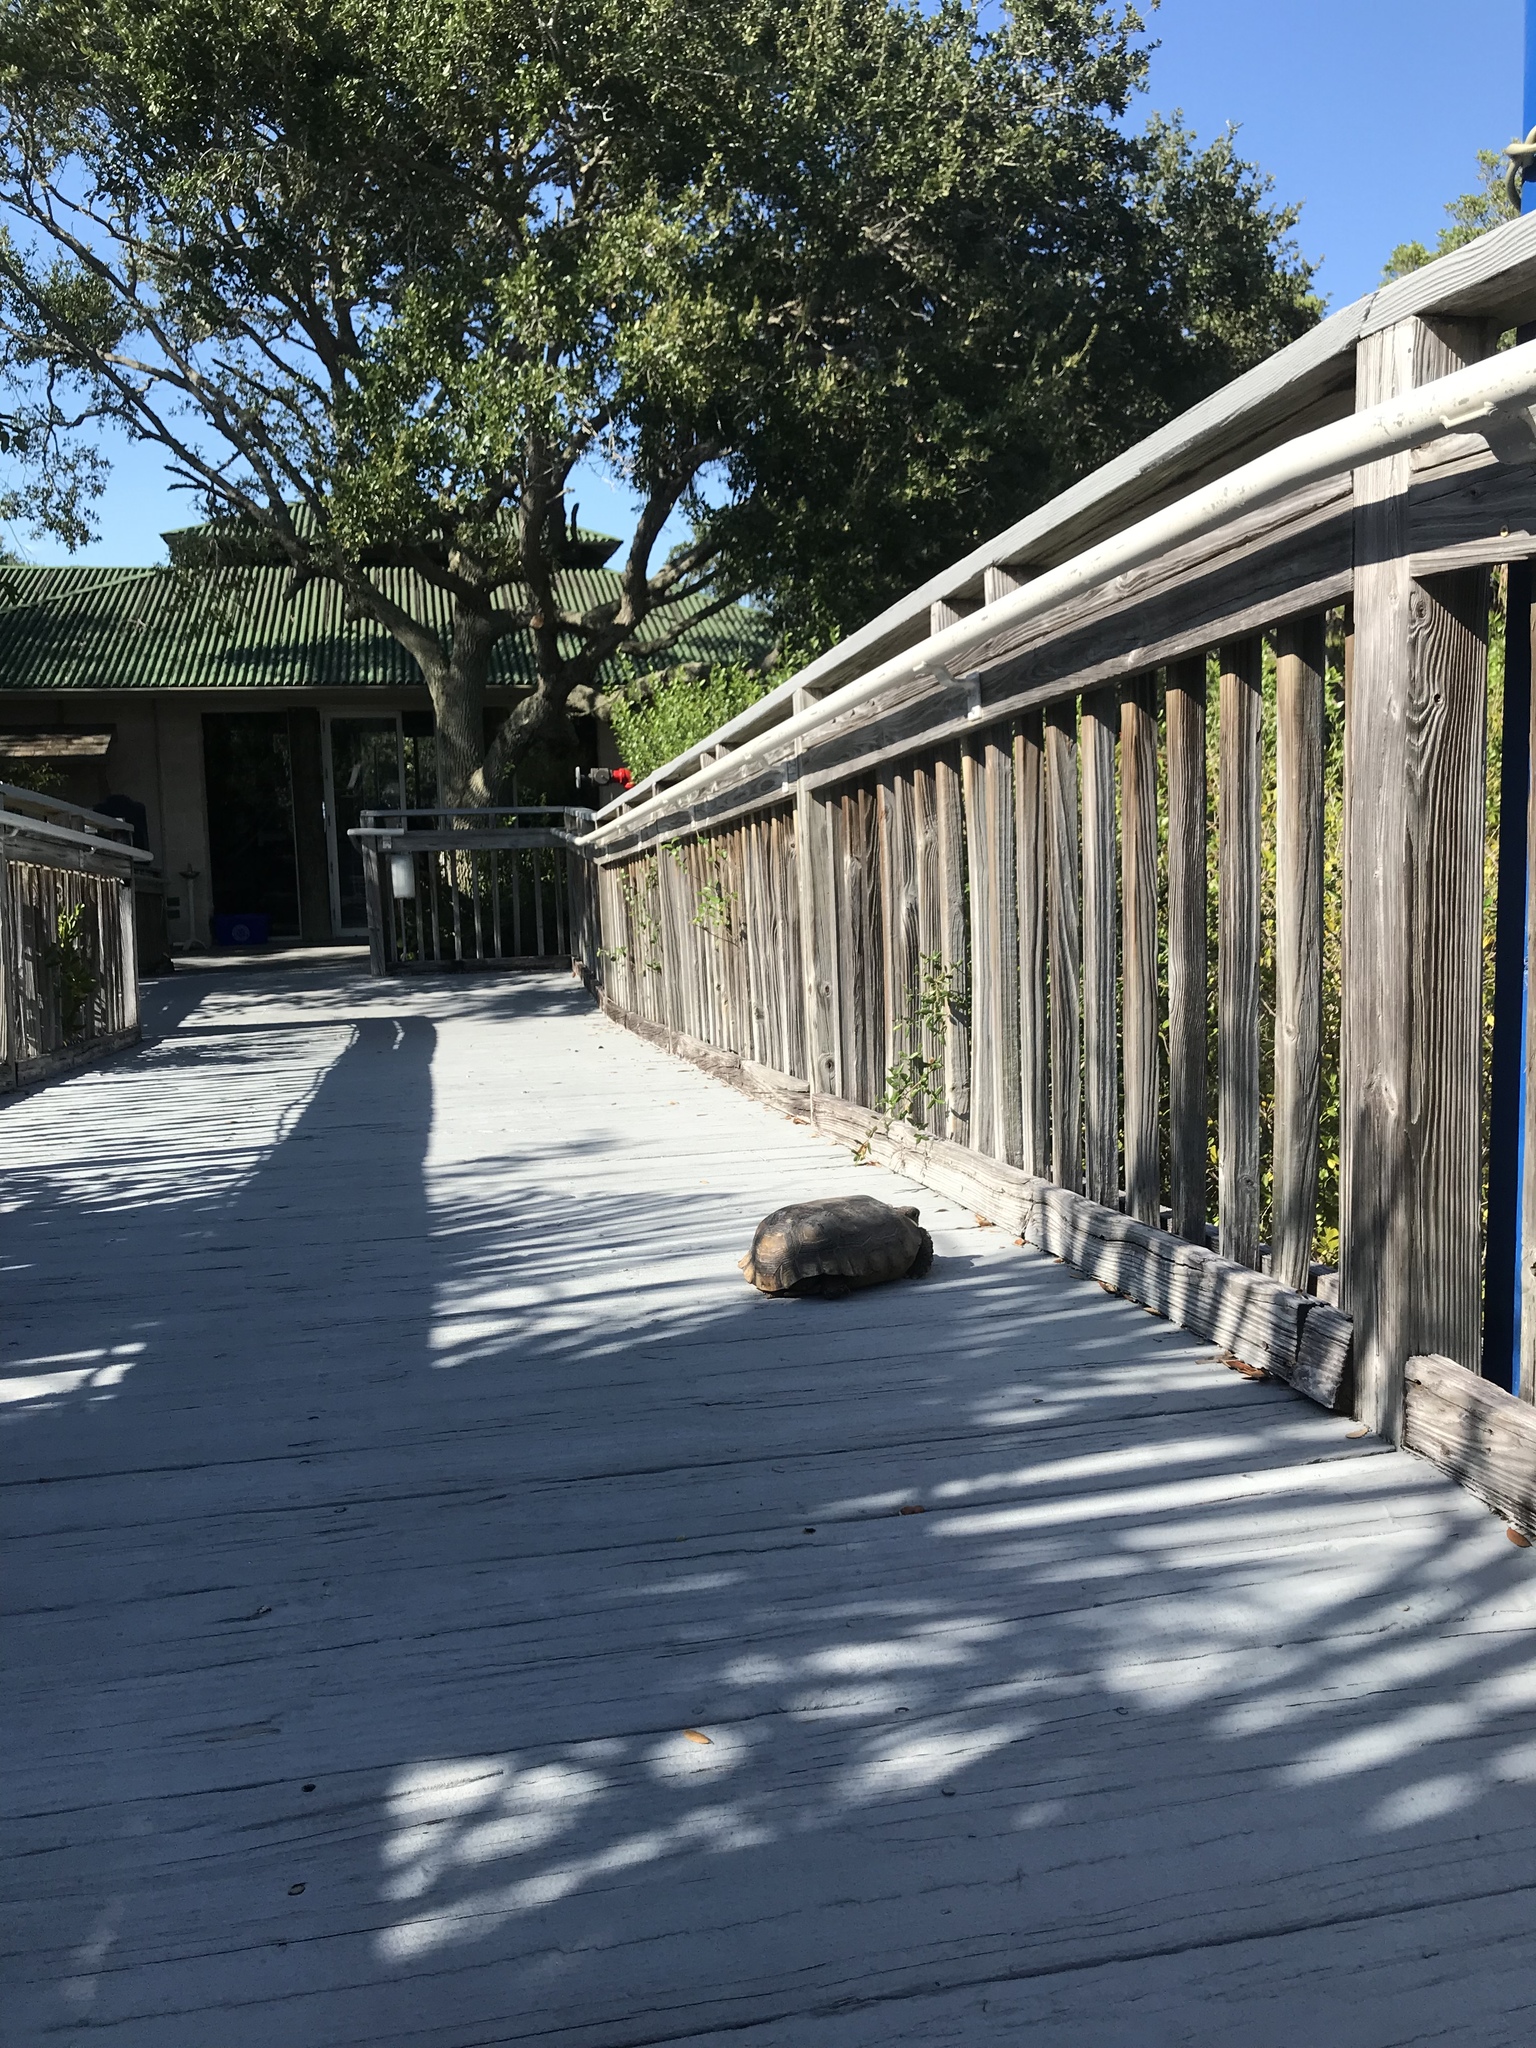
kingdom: Animalia
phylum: Chordata
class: Testudines
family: Testudinidae
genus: Gopherus
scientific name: Gopherus polyphemus
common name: Florida gopher tortoise
